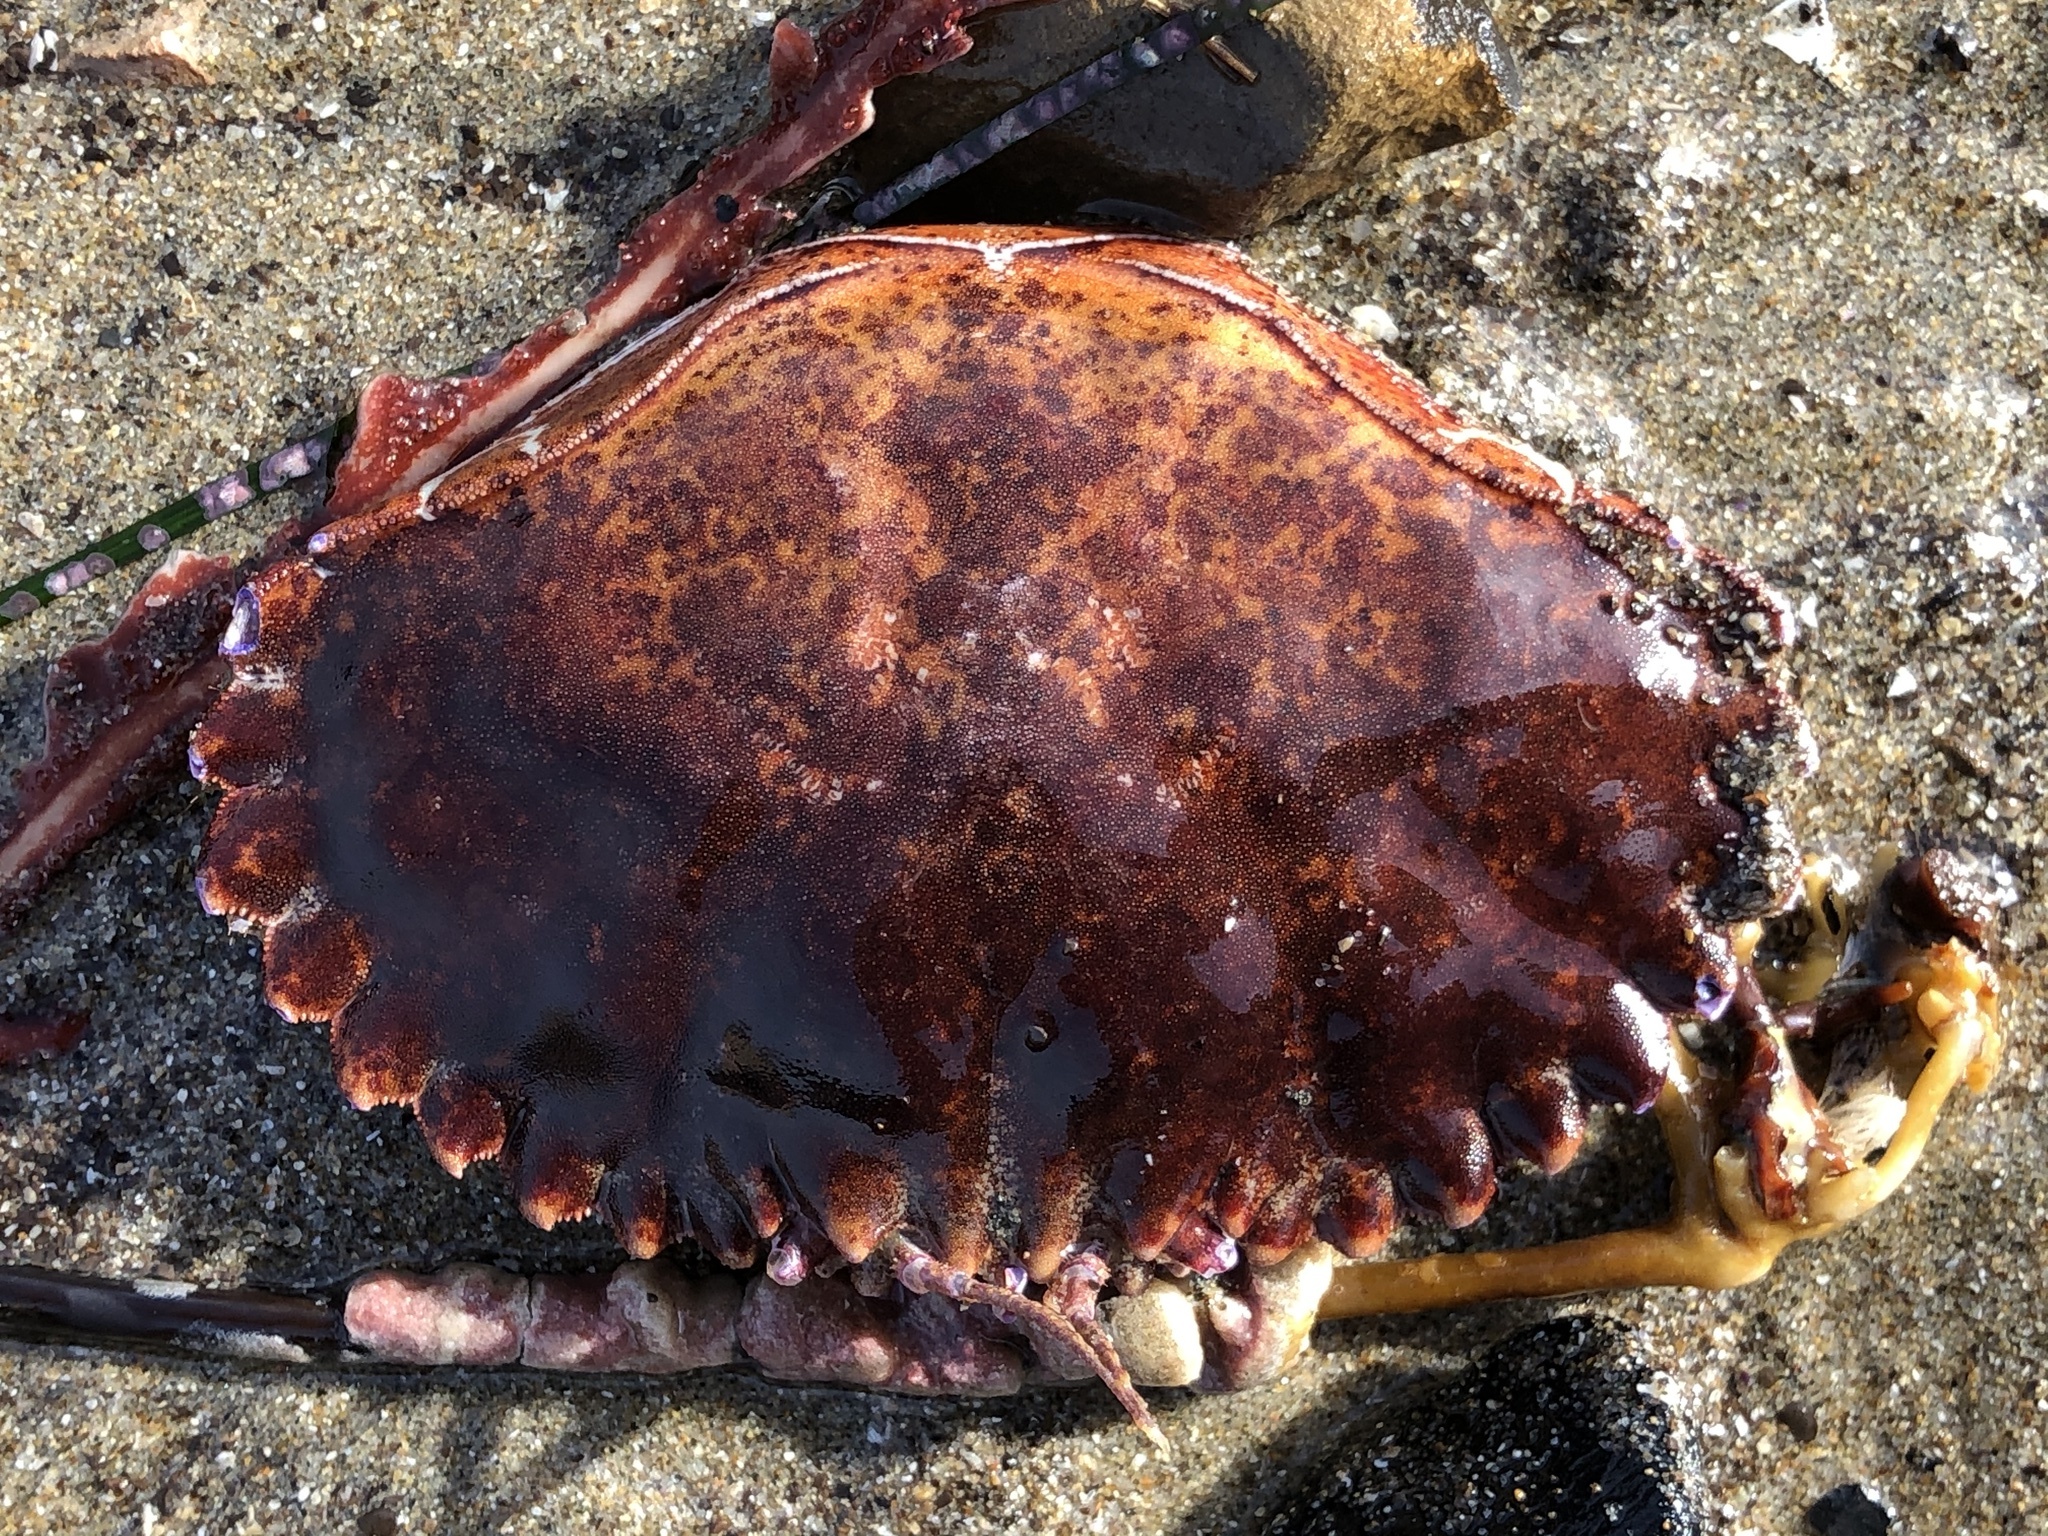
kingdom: Animalia
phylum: Arthropoda
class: Malacostraca
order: Decapoda
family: Cancridae
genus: Romaleon
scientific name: Romaleon antennarium
